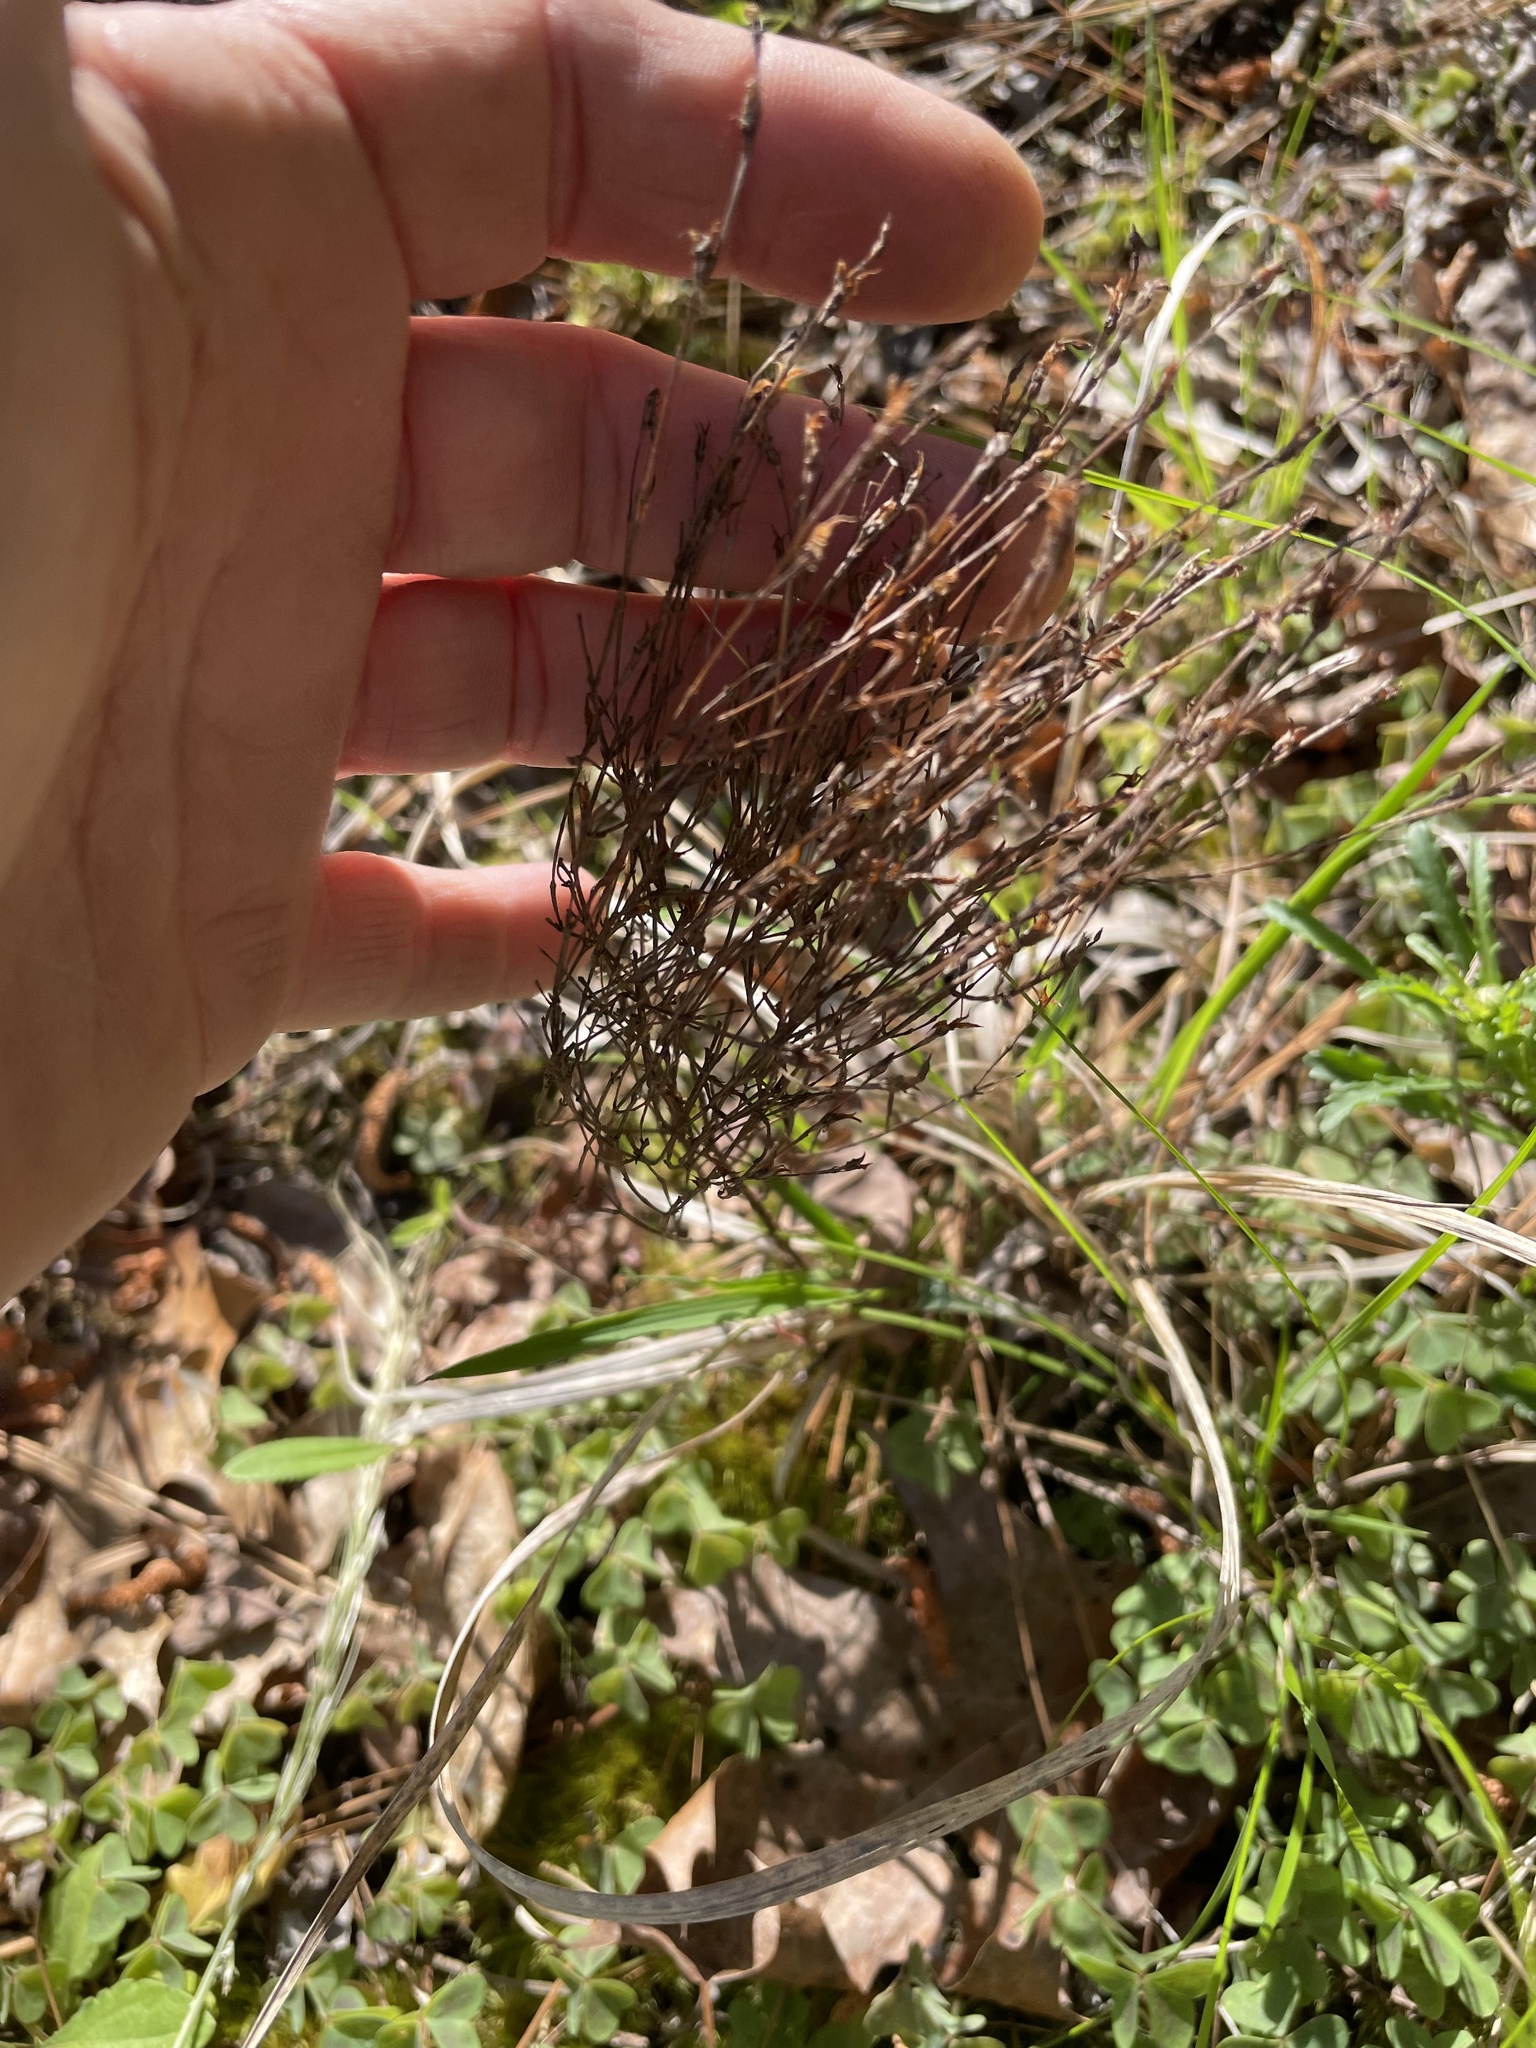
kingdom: Plantae
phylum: Tracheophyta
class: Magnoliopsida
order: Malpighiales
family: Hypericaceae
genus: Hypericum
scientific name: Hypericum gentianoides
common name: Gentian-leaved st. john's-wort
